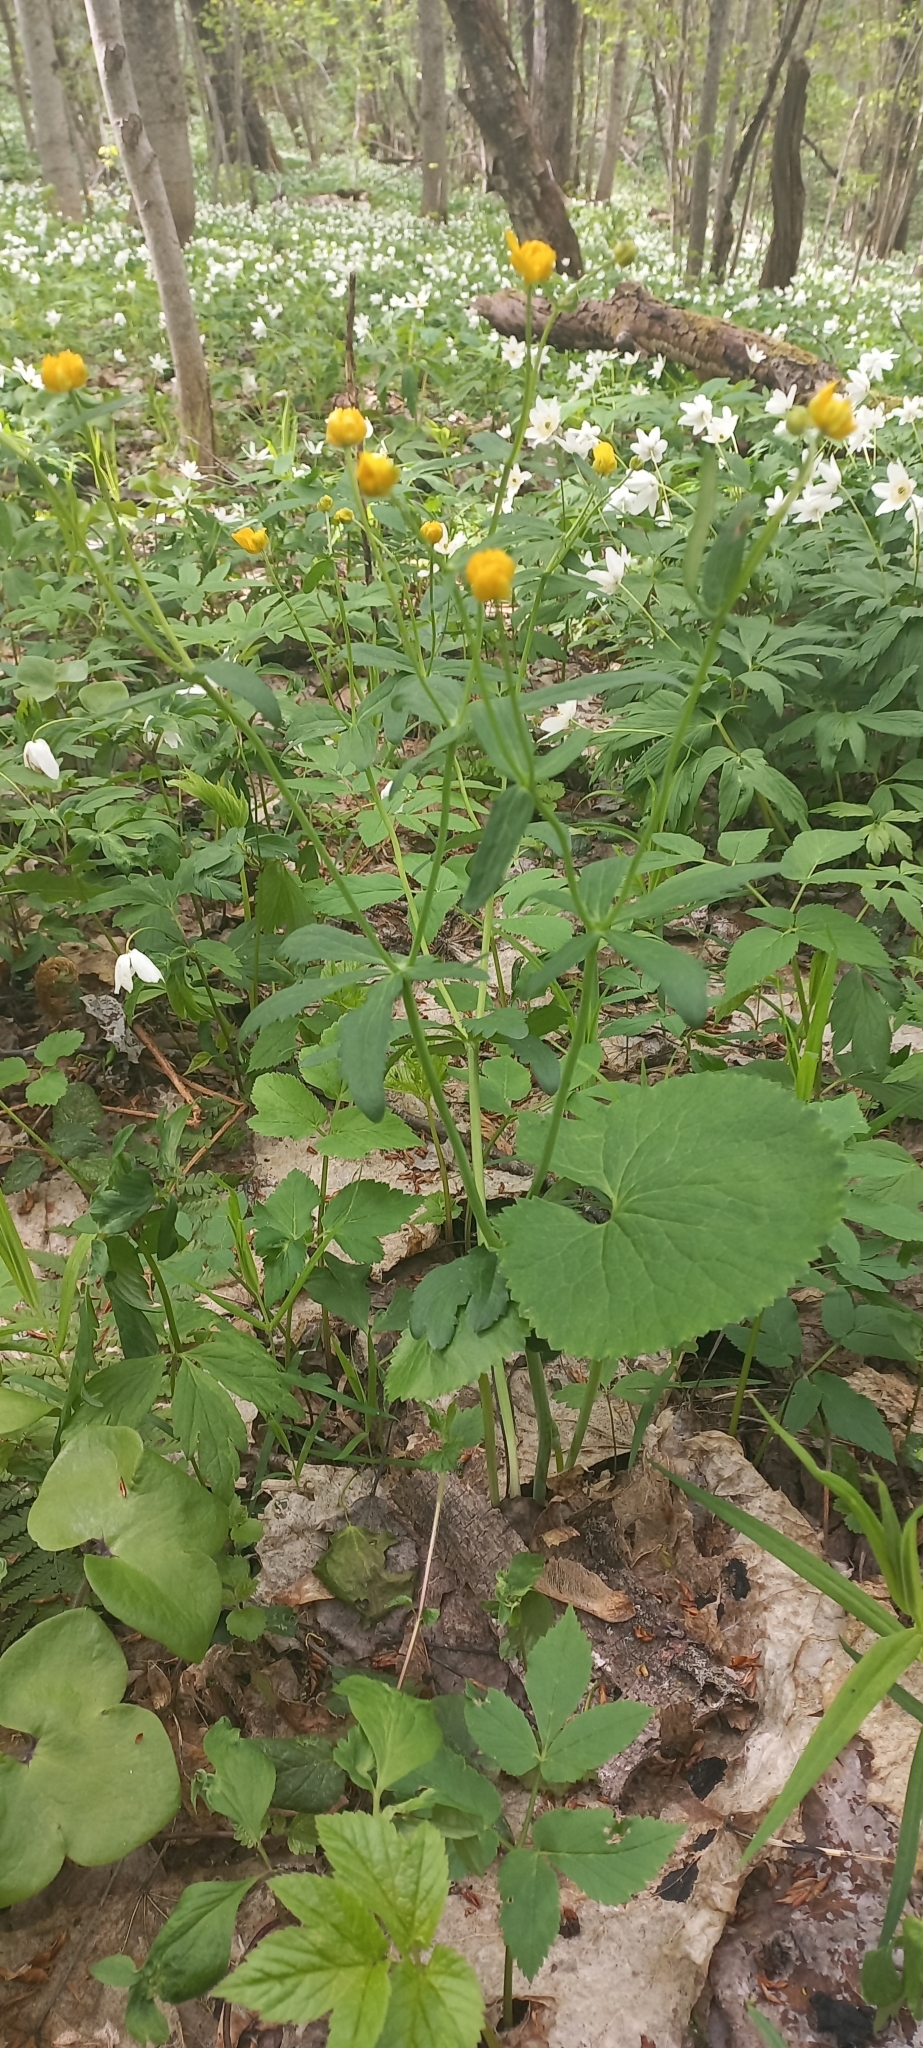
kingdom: Plantae
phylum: Tracheophyta
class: Magnoliopsida
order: Ranunculales
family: Ranunculaceae
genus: Ranunculus
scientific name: Ranunculus cassubicus
